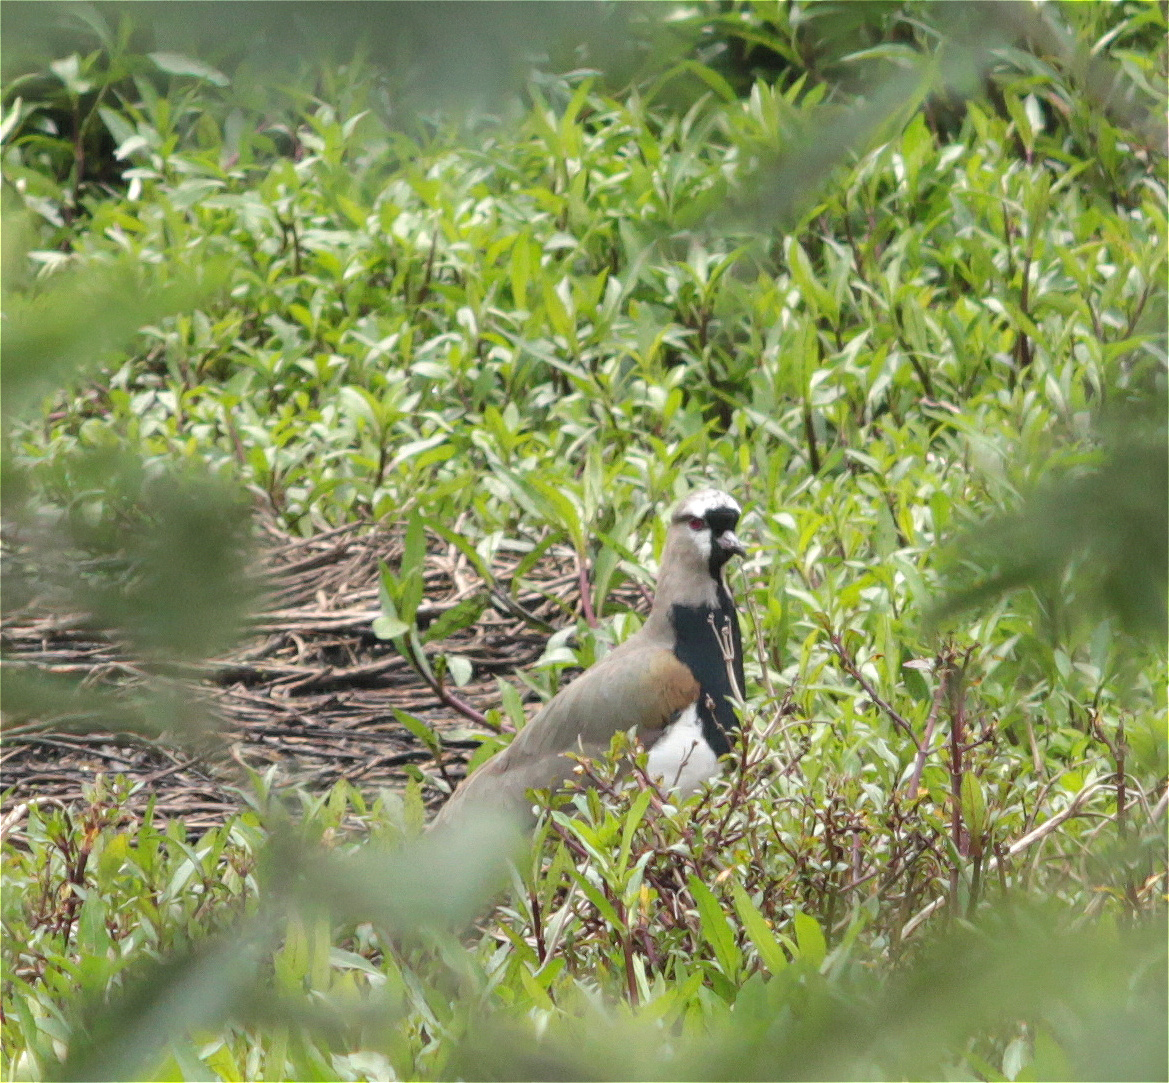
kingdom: Animalia
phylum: Chordata
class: Aves
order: Charadriiformes
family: Charadriidae
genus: Vanellus
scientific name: Vanellus chilensis
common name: Southern lapwing
